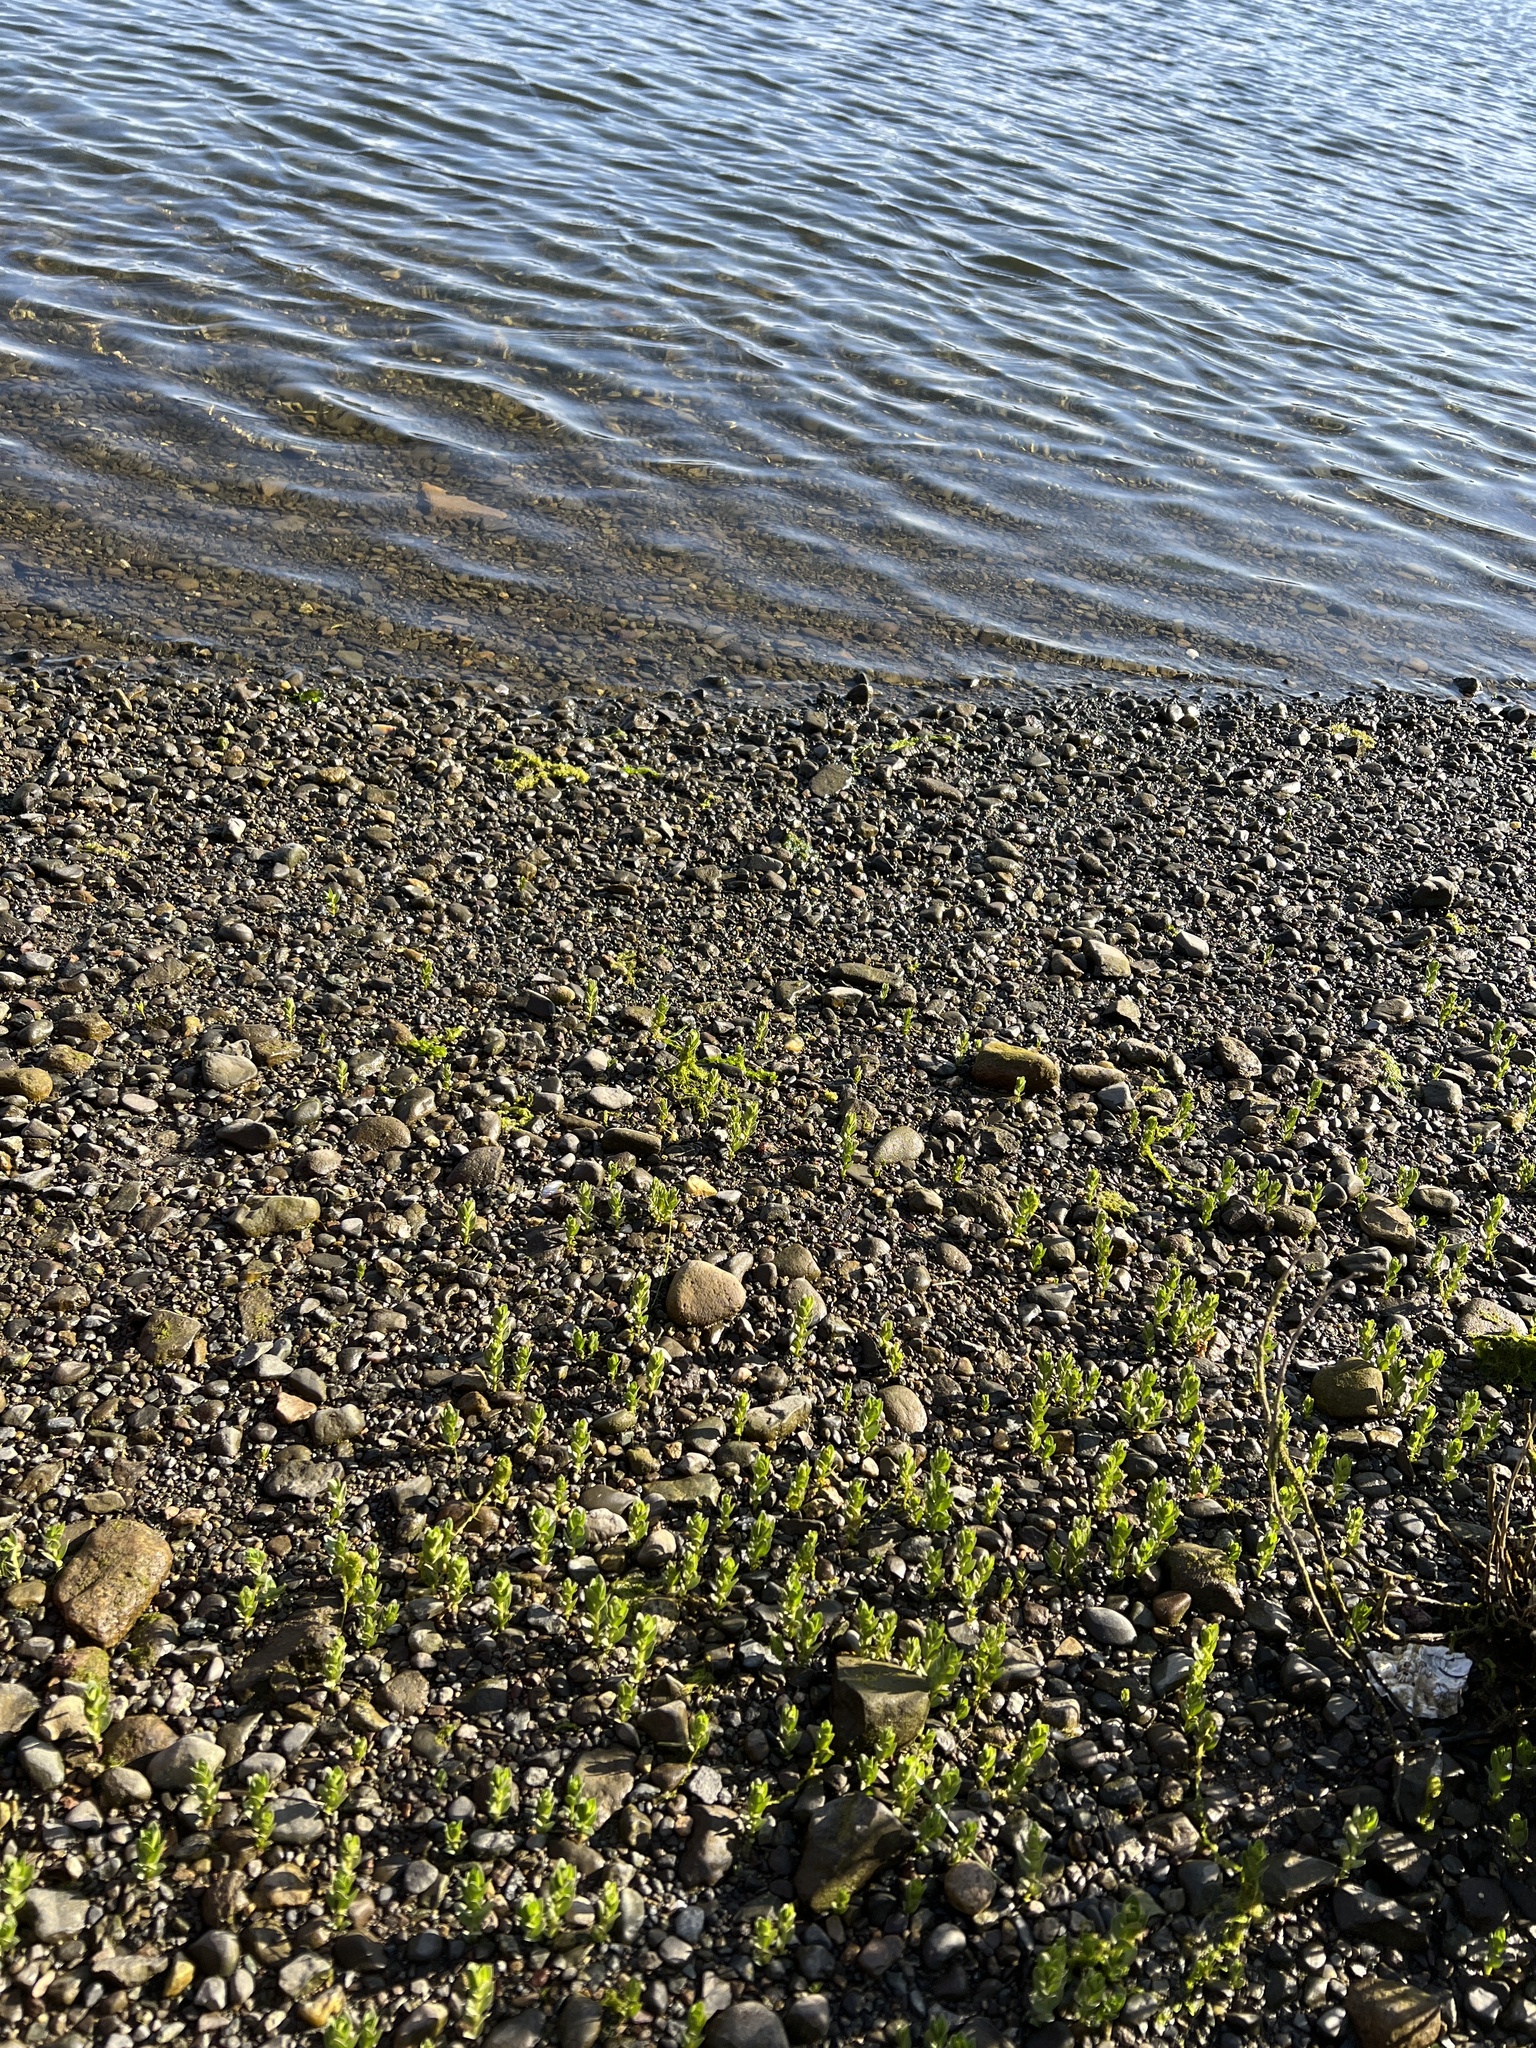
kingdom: Plantae
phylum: Tracheophyta
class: Magnoliopsida
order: Ericales
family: Primulaceae
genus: Lysimachia
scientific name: Lysimachia maritima
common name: Sea milkwort
